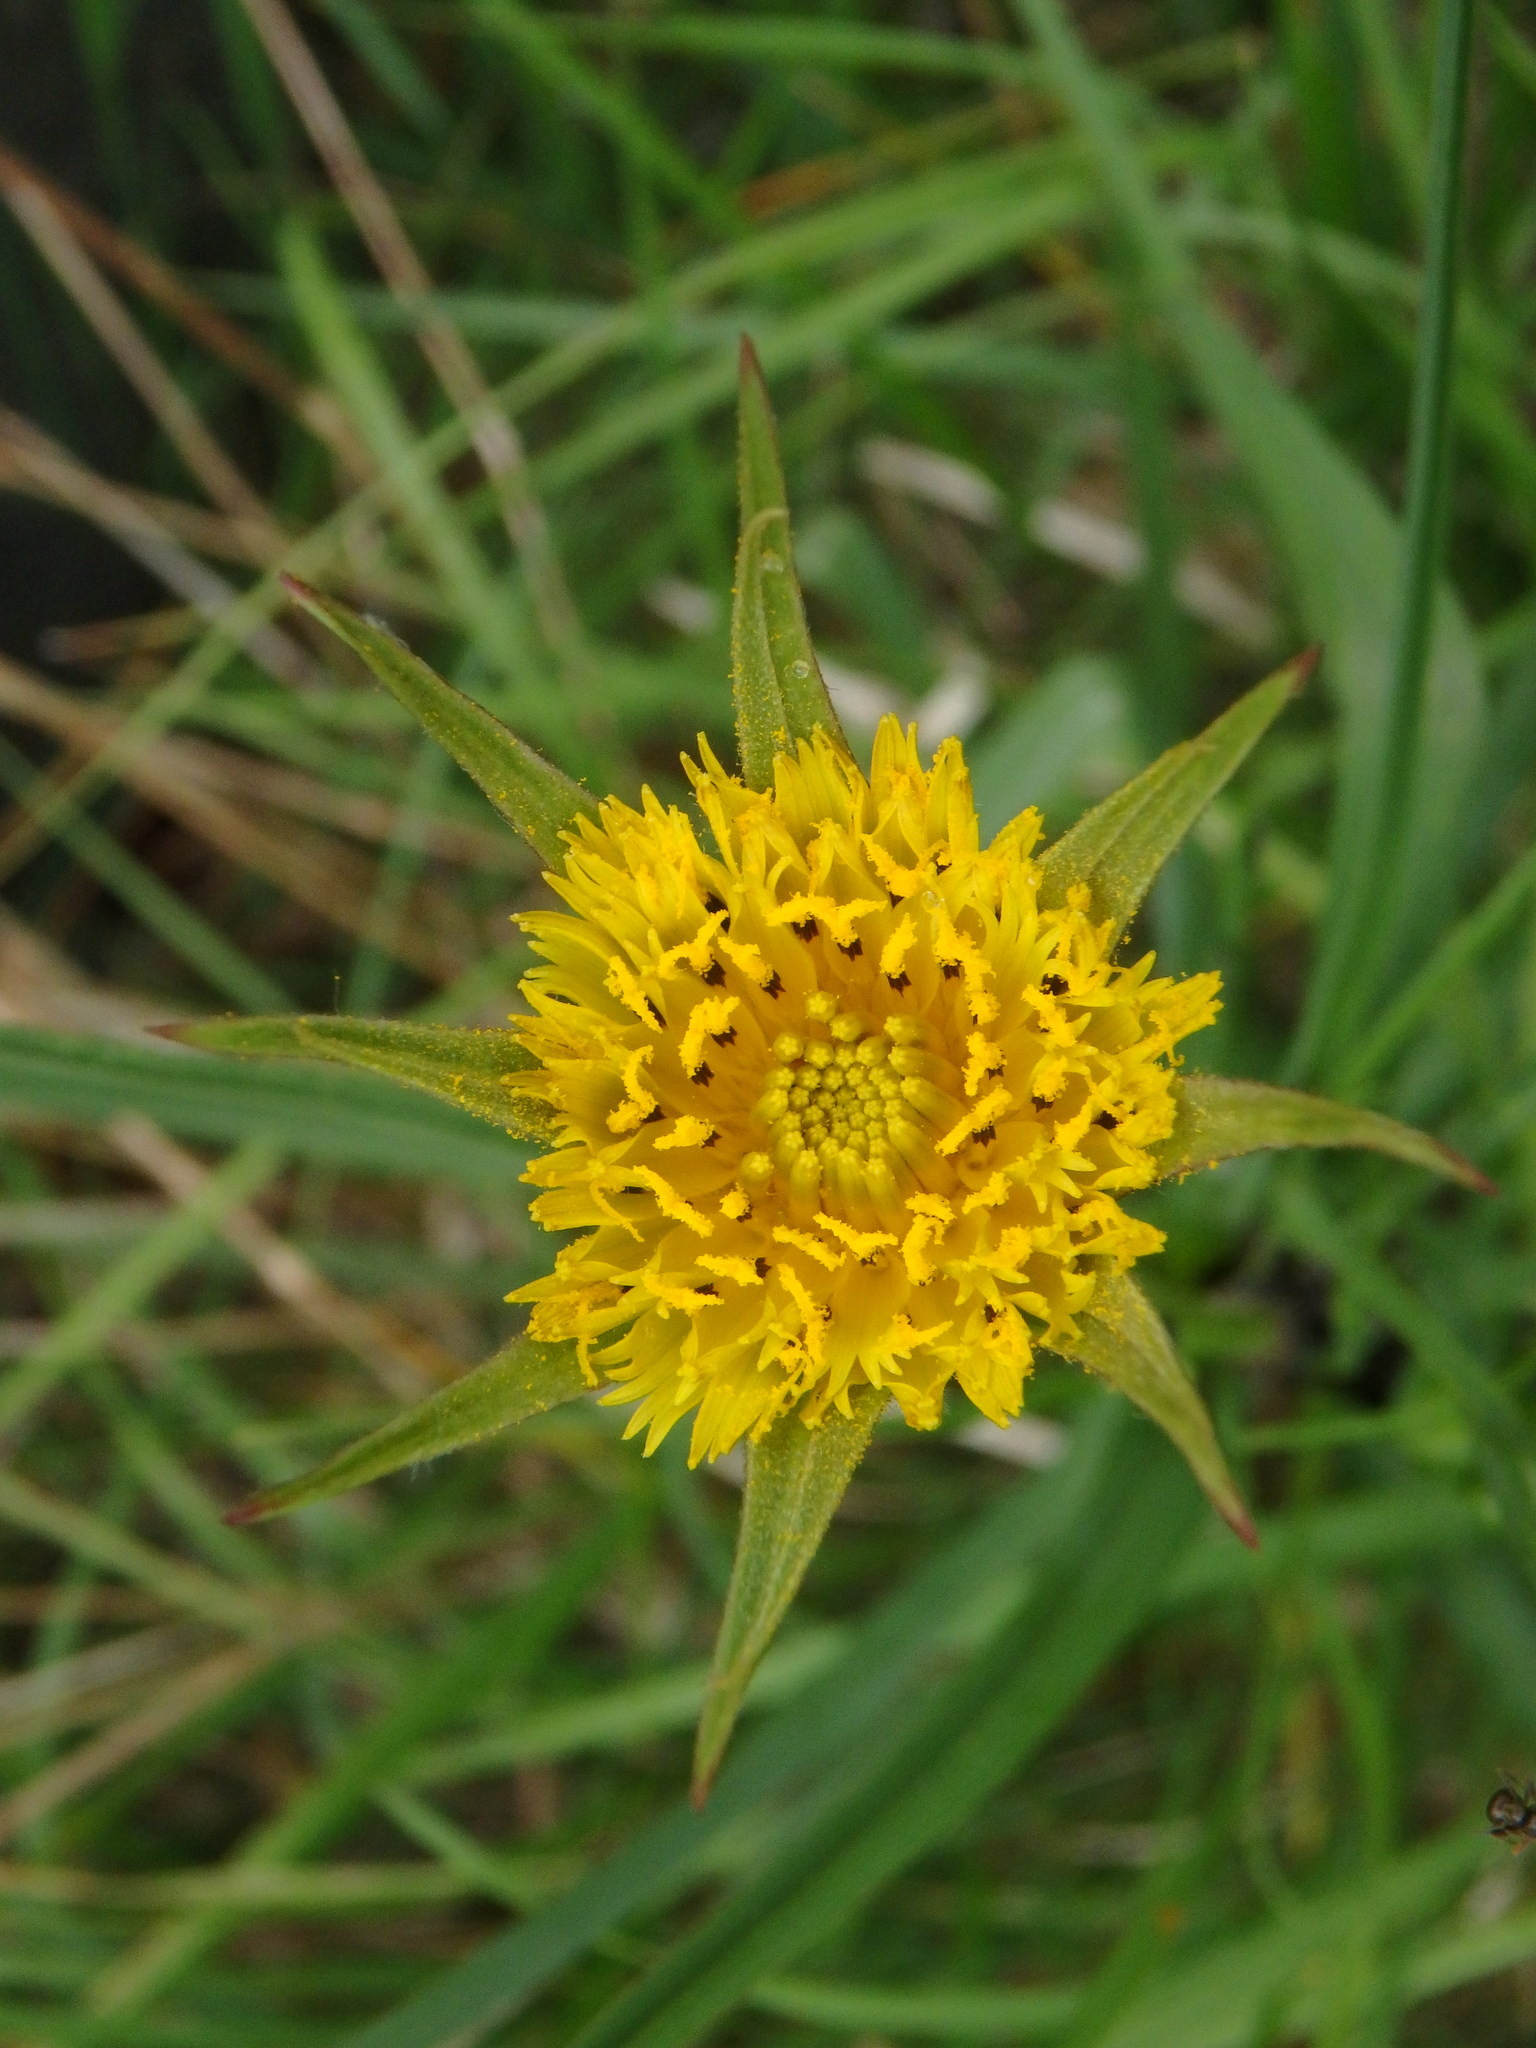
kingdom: Plantae
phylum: Tracheophyta
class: Magnoliopsida
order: Asterales
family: Asteraceae
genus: Tragopogon
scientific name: Tragopogon minor
